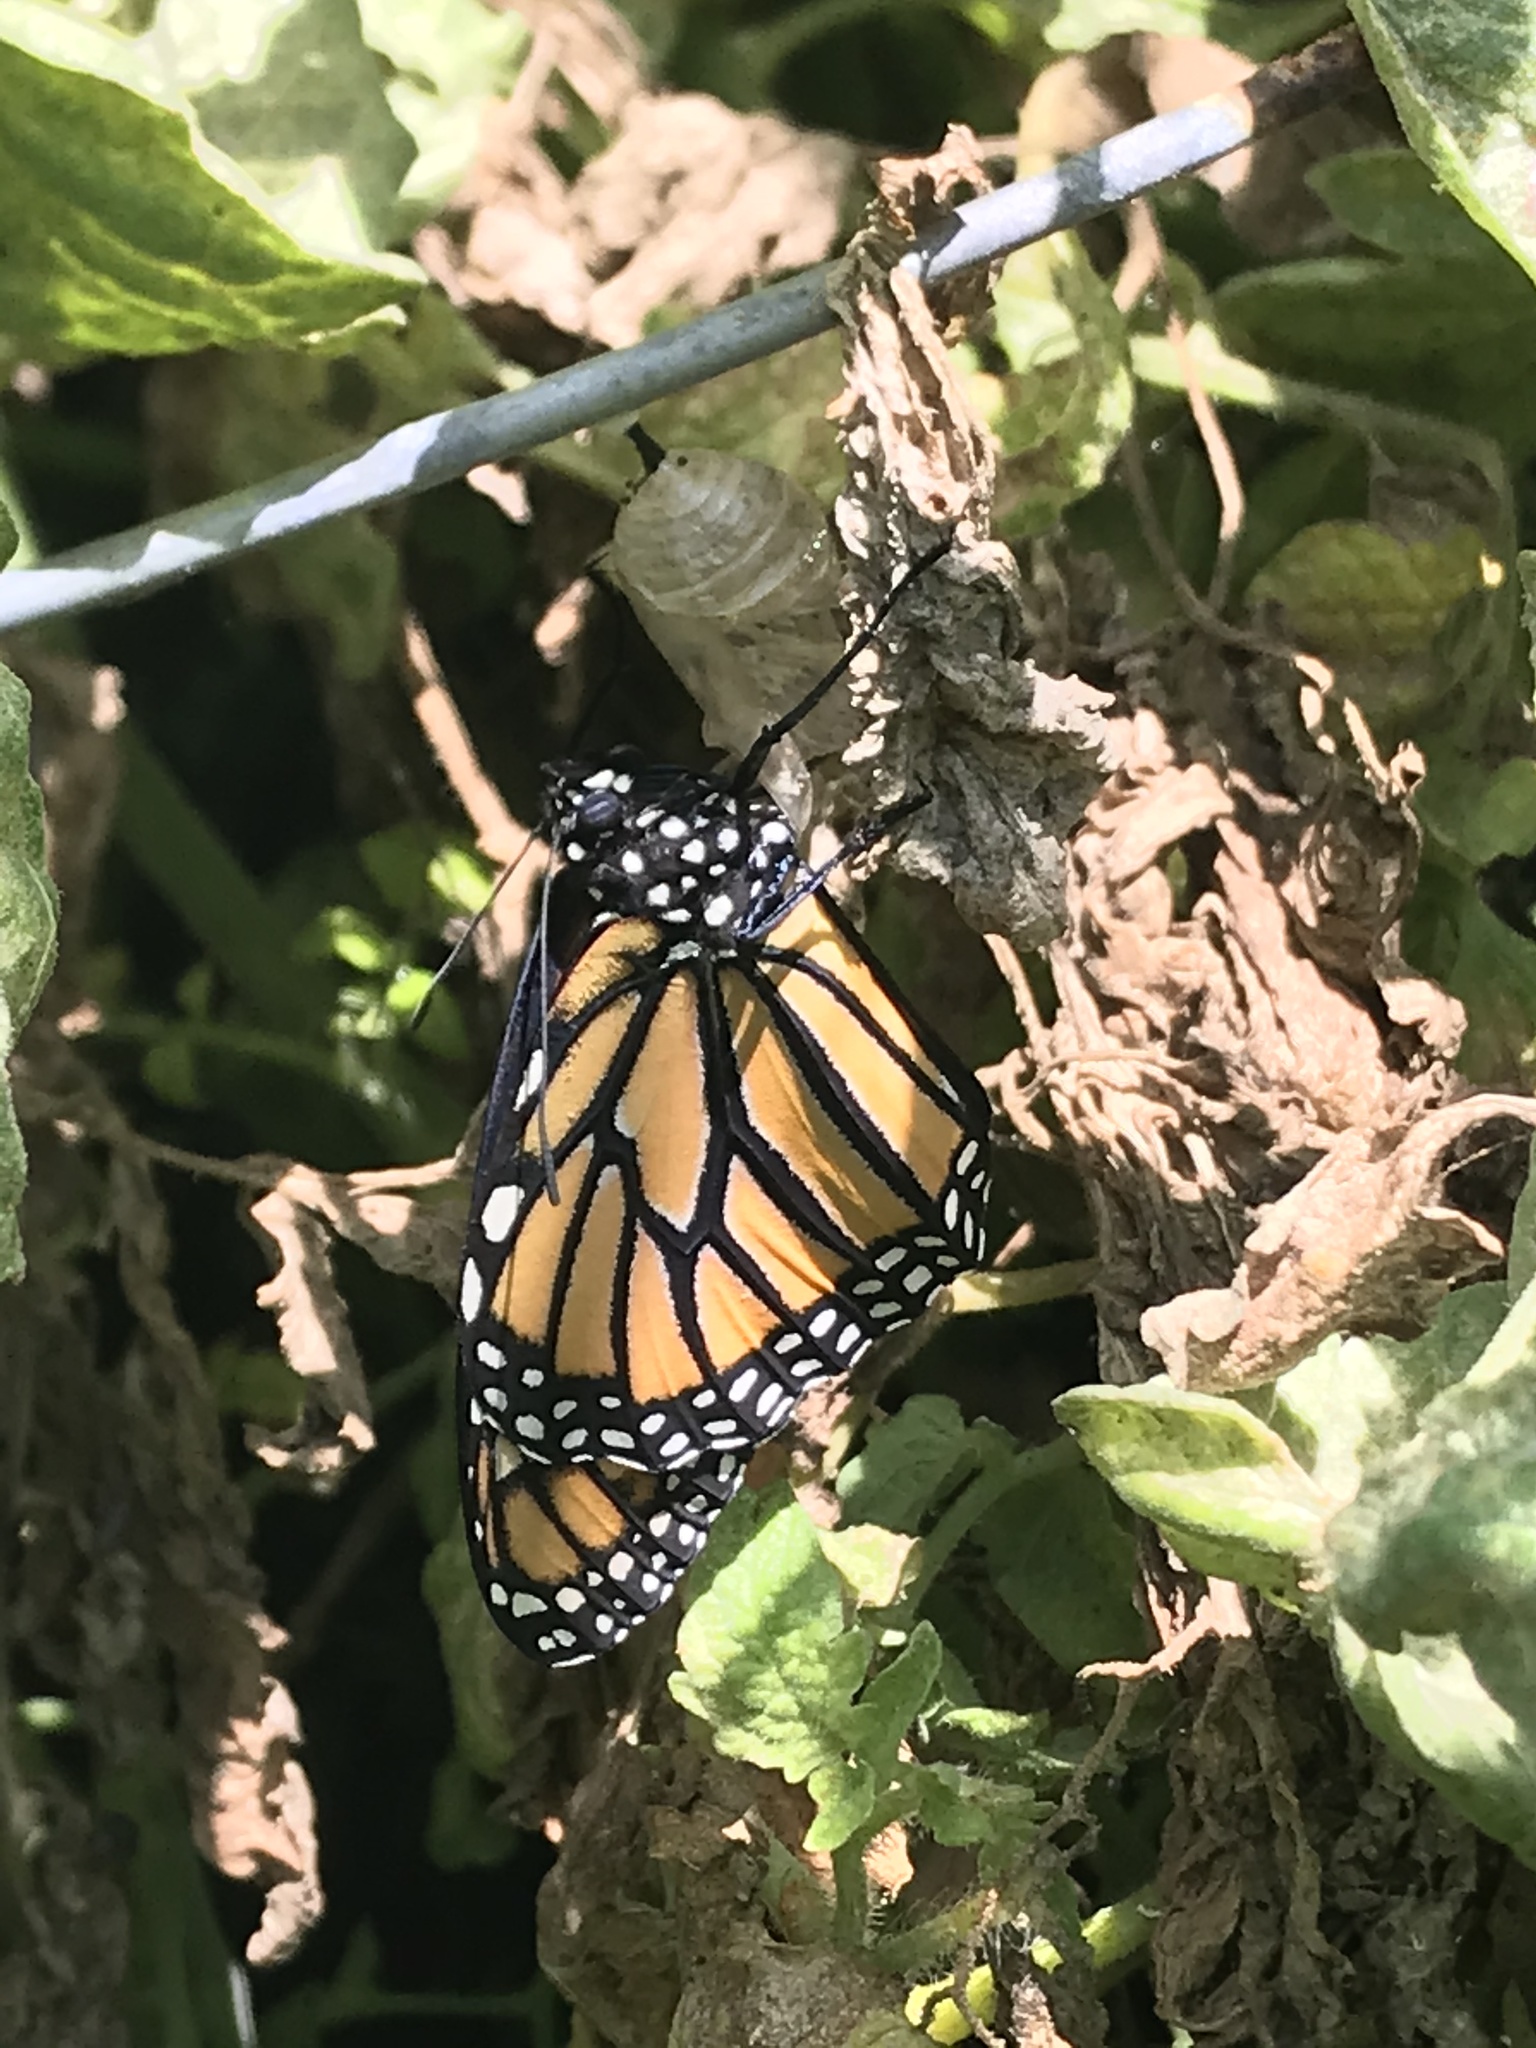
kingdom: Animalia
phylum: Arthropoda
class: Insecta
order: Lepidoptera
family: Nymphalidae
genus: Danaus
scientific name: Danaus plexippus
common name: Monarch
